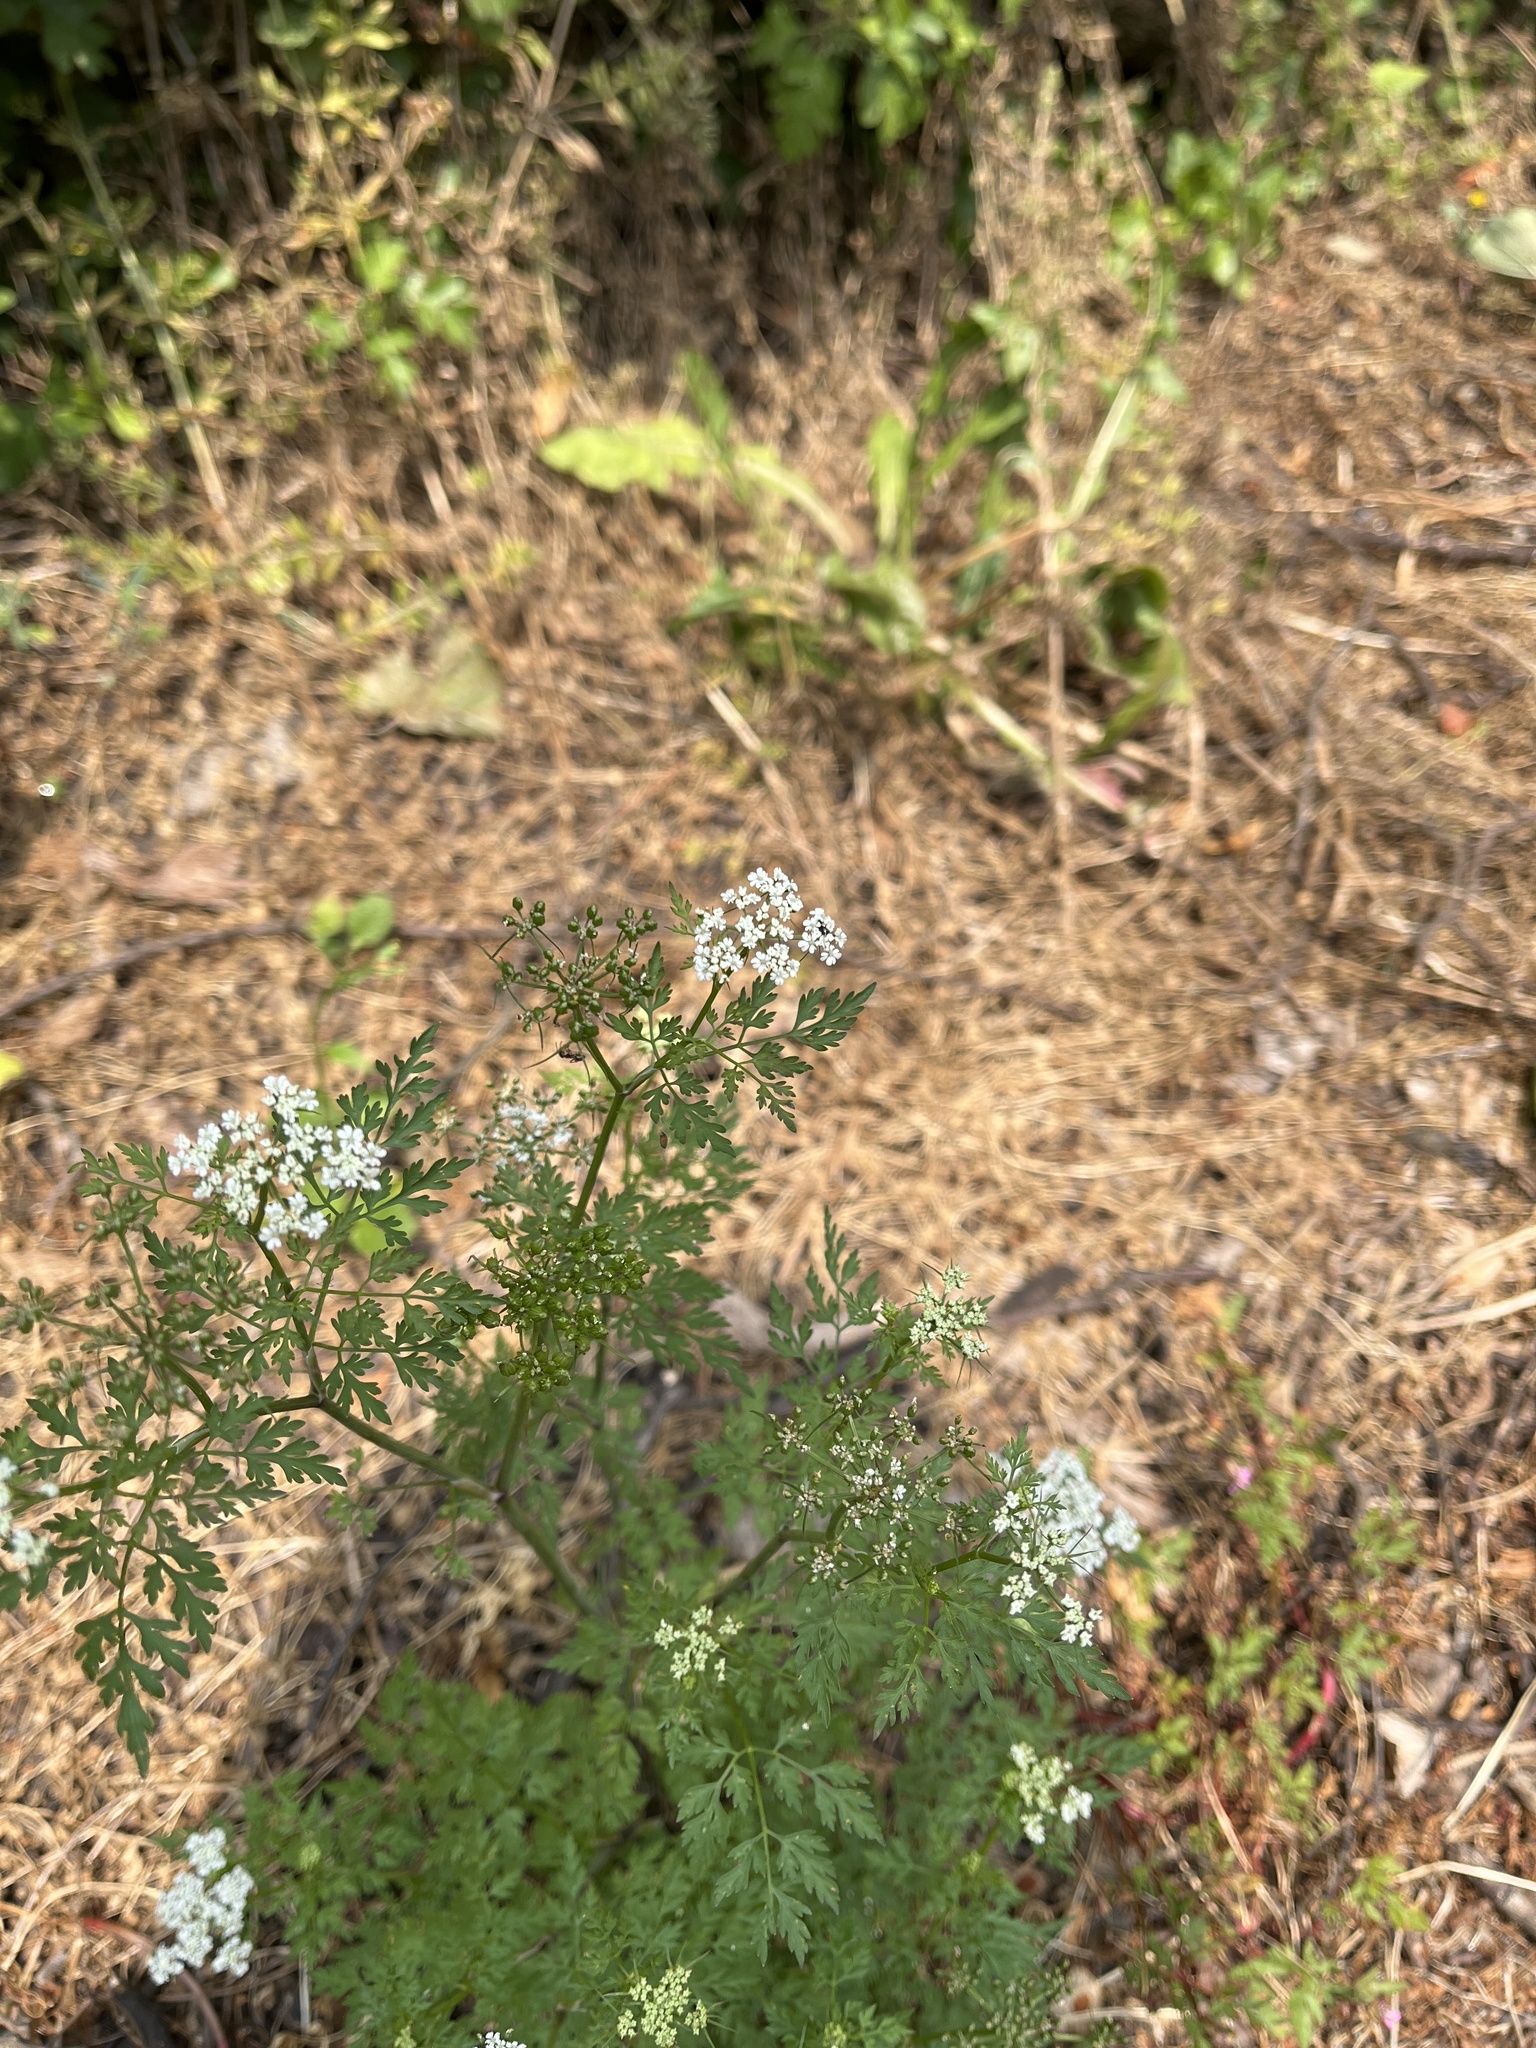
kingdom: Plantae
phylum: Tracheophyta
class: Magnoliopsida
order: Apiales
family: Apiaceae
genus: Aethusa
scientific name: Aethusa cynapium
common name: Fool's parsley
